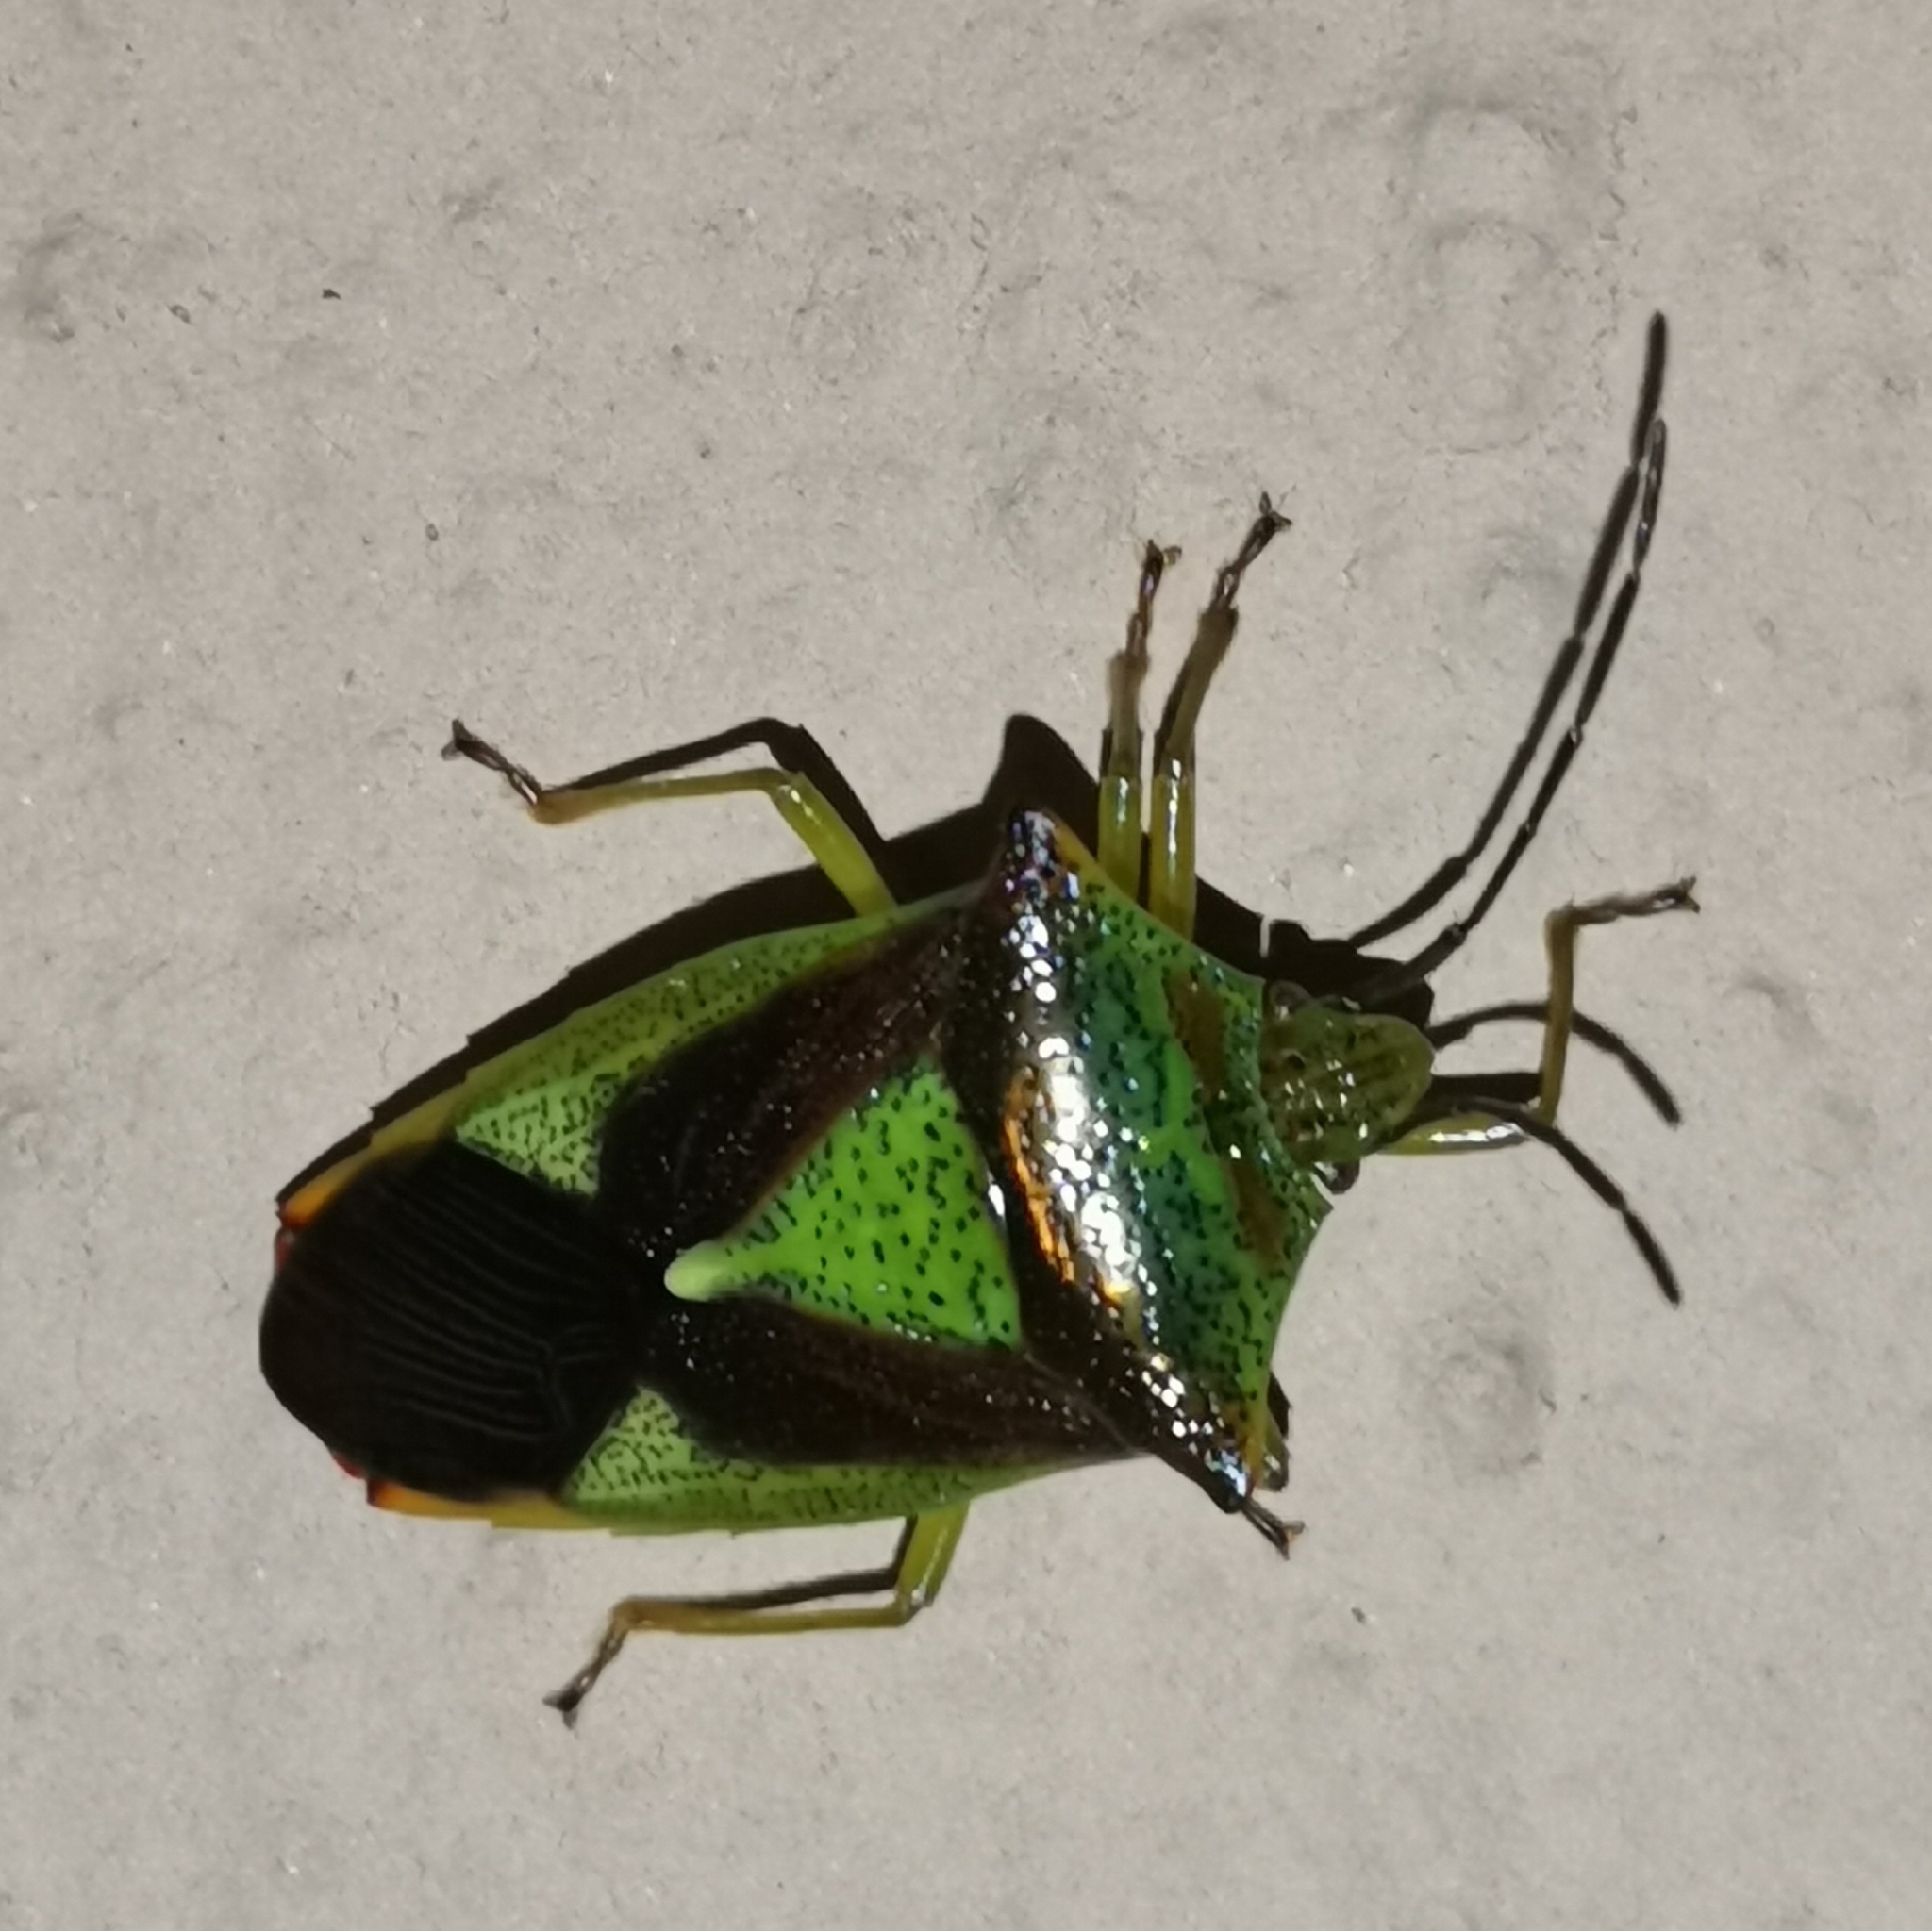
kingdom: Animalia
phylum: Arthropoda
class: Insecta
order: Hemiptera
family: Acanthosomatidae
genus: Acanthosoma
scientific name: Acanthosoma haemorrhoidale
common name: Hawthorn shieldbug
